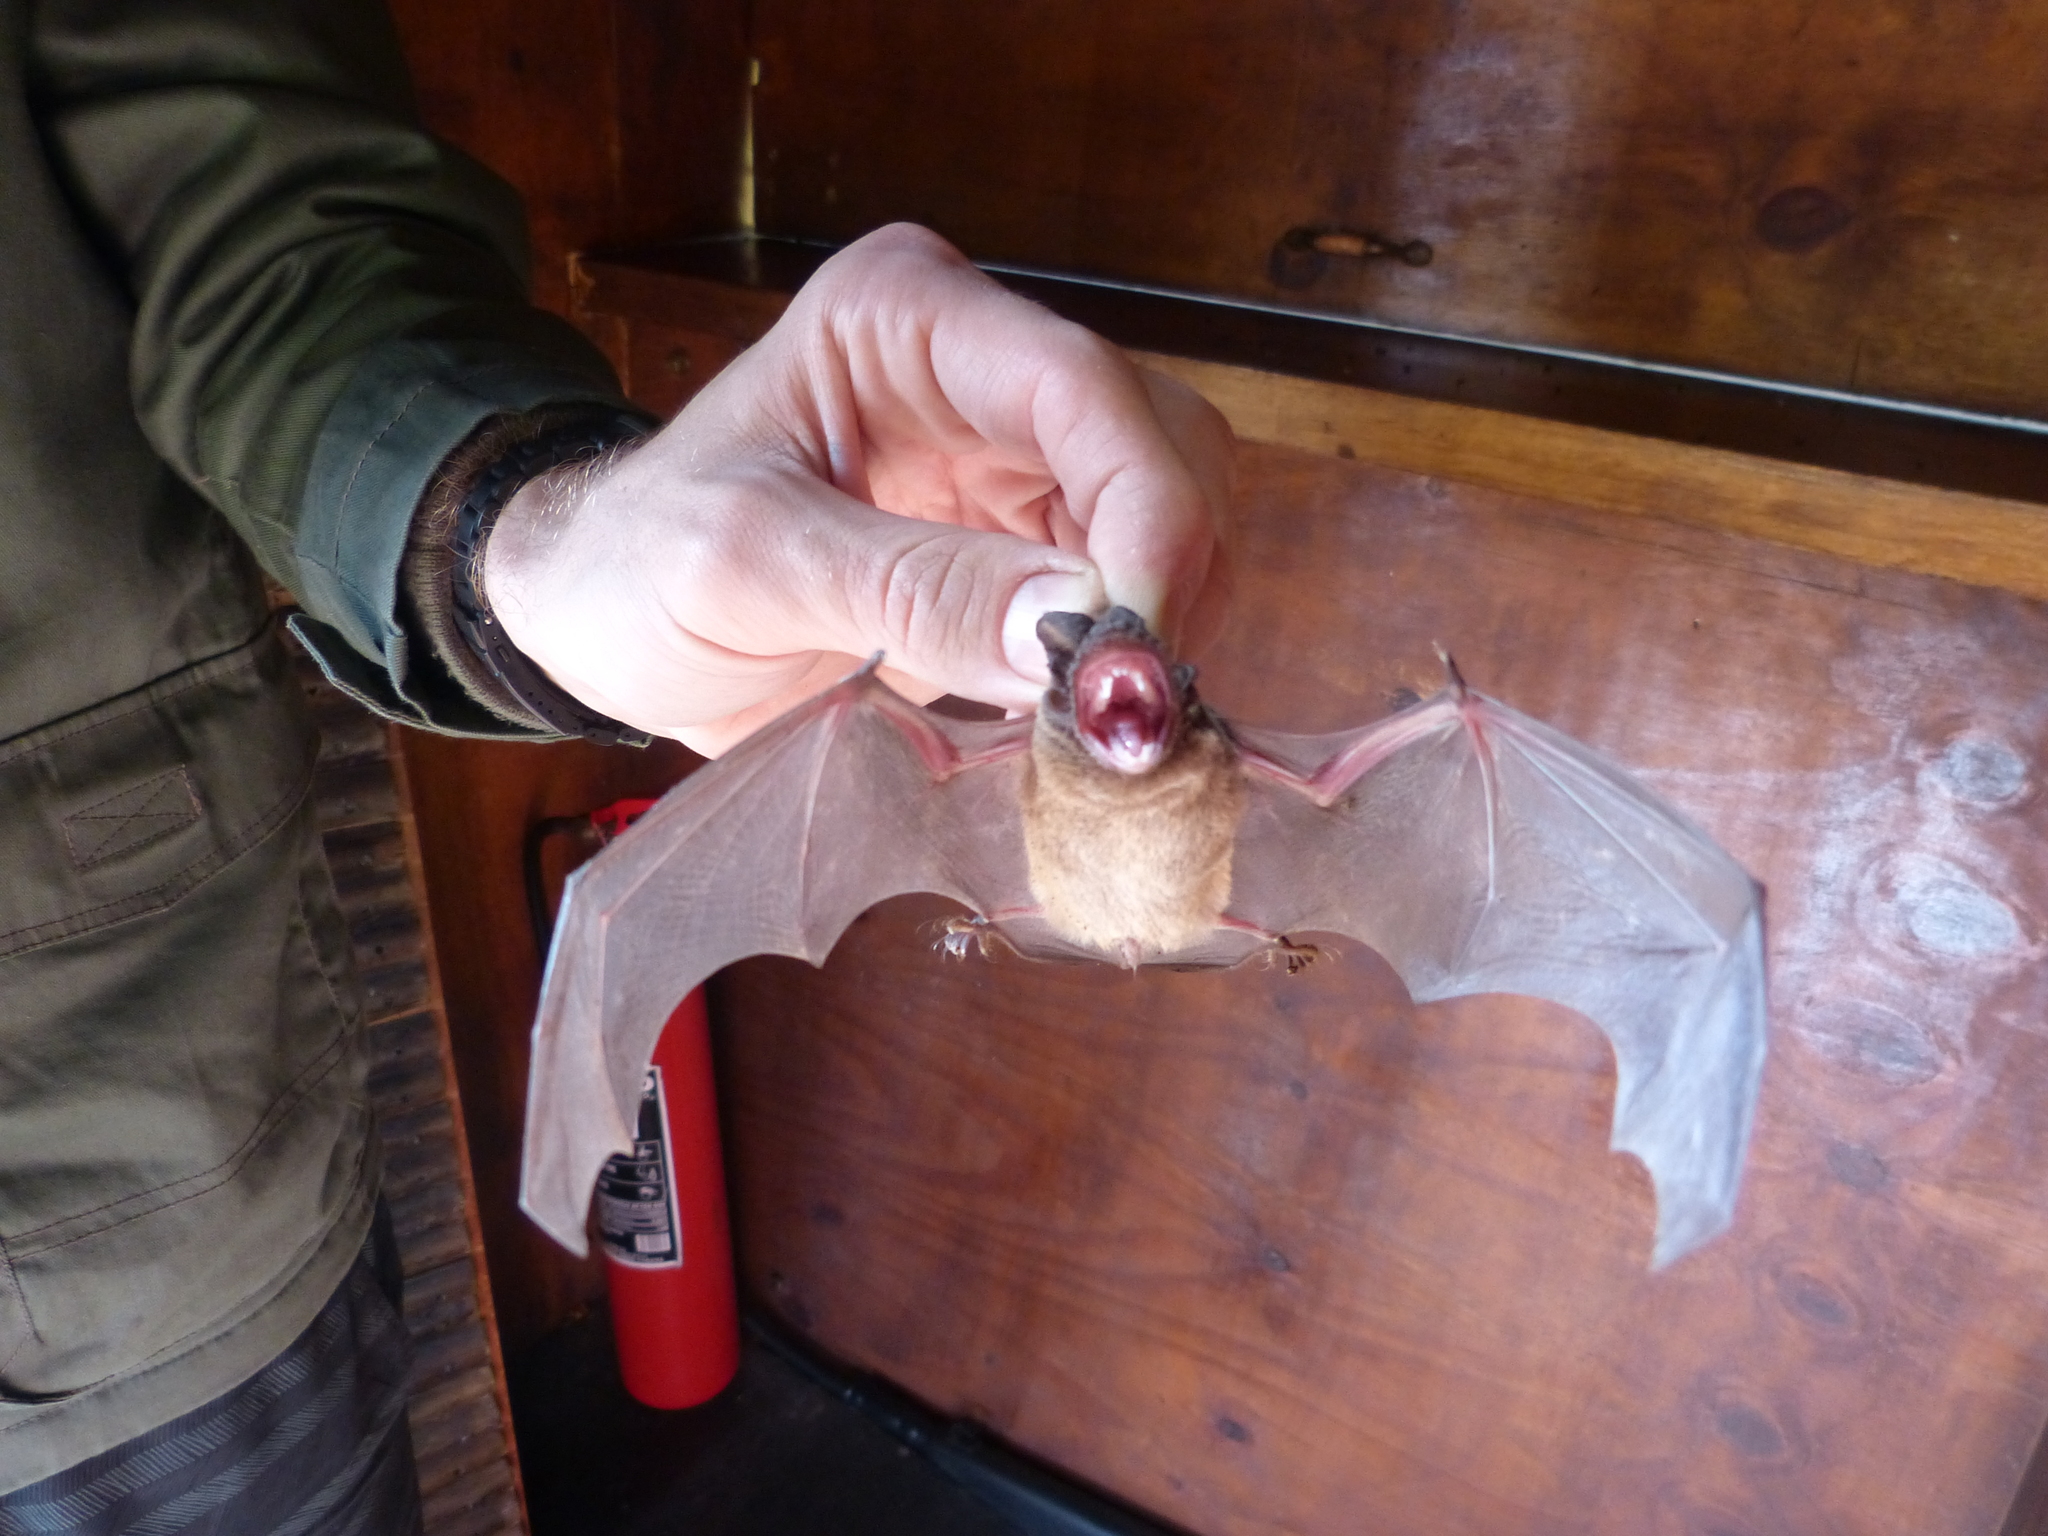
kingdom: Animalia
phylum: Chordata
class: Mammalia
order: Chiroptera
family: Molossidae
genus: Chaerephon
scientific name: Chaerephon pusillus
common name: Seychelles free-tailed bat
